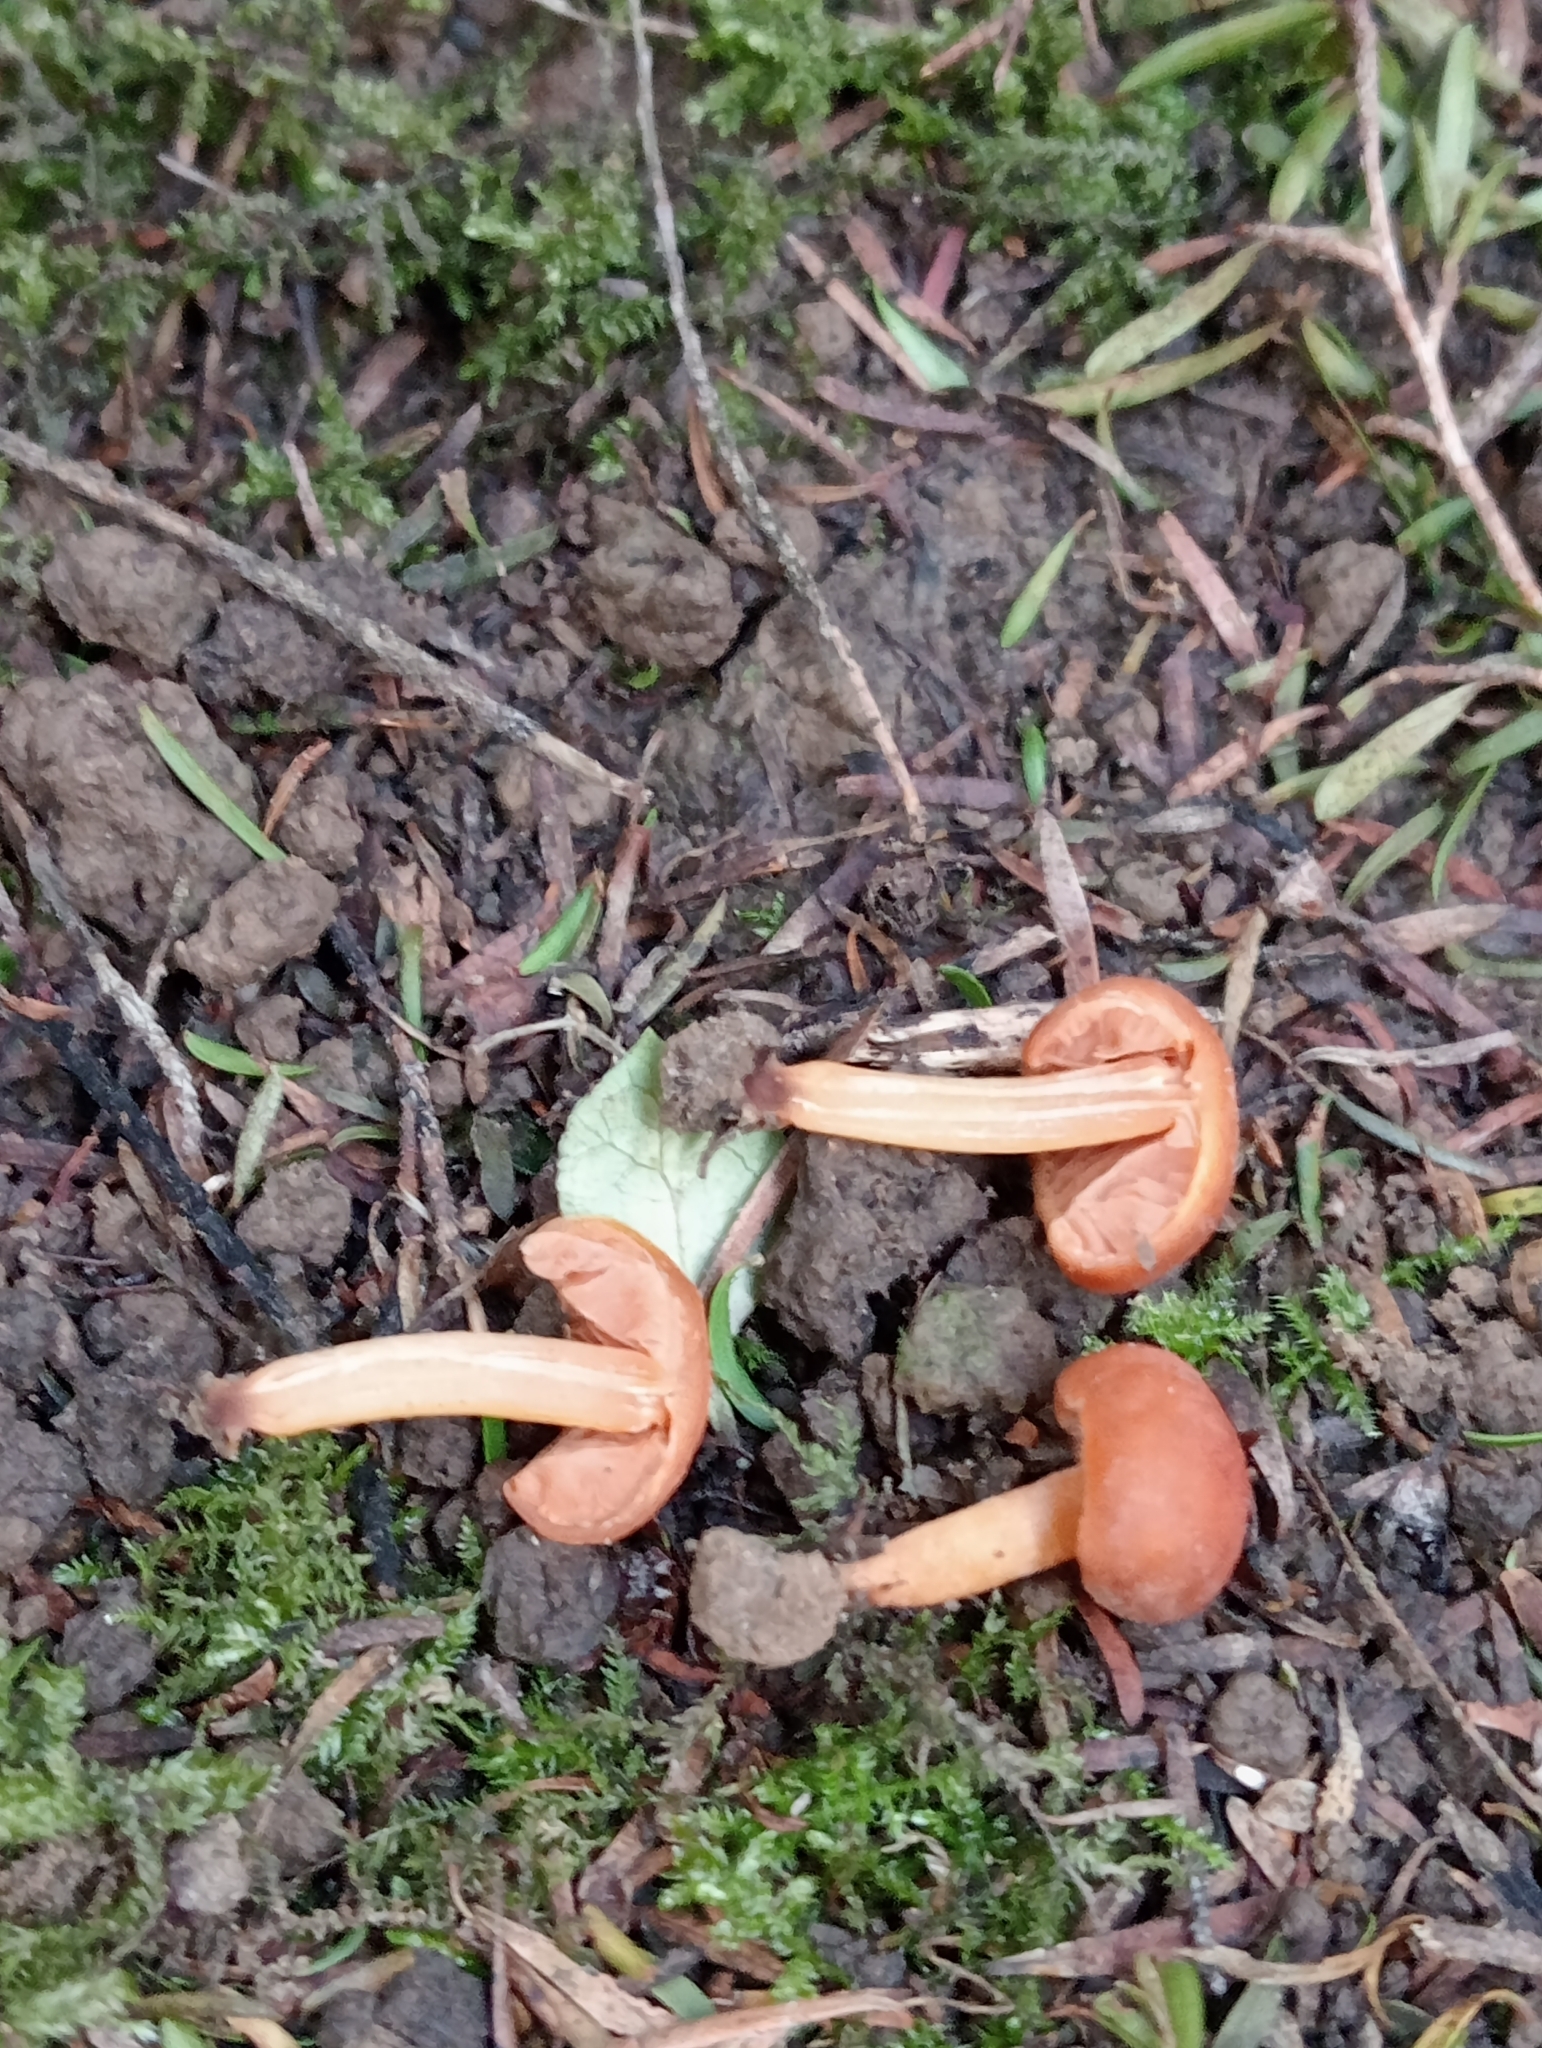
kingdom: Fungi
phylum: Basidiomycota
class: Agaricomycetes
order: Agaricales
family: Macrocystidiaceae
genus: Macrocystidia
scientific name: Macrocystidia reducta
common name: The fishy pouch
